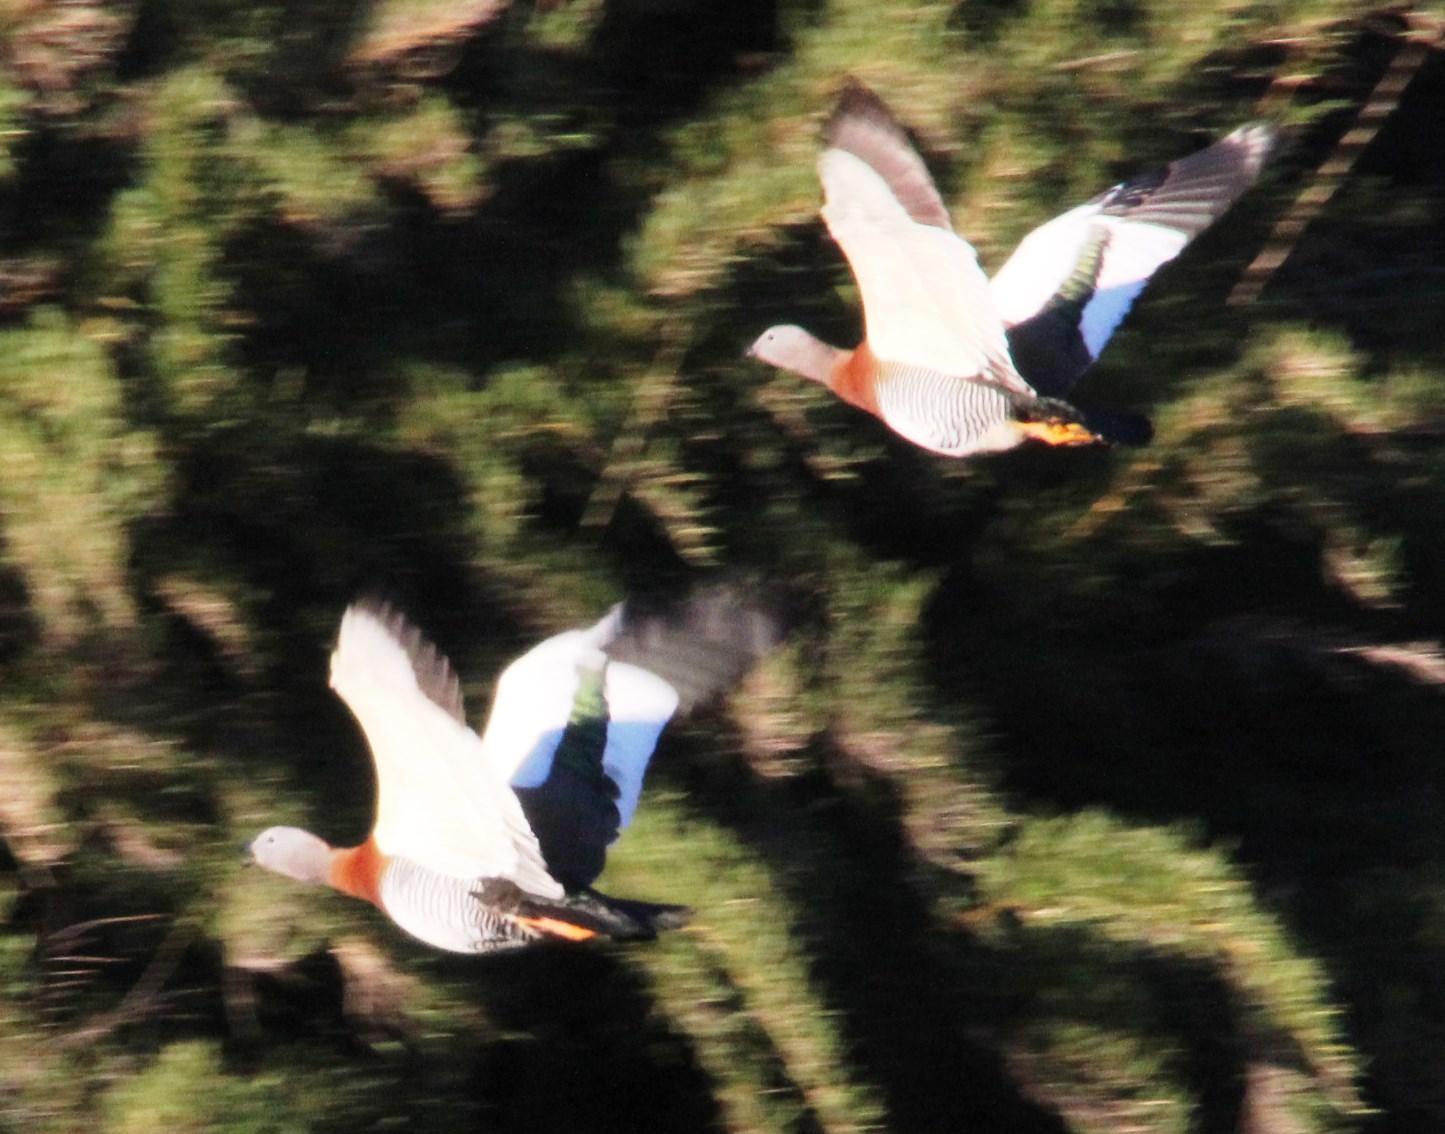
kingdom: Animalia
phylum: Chordata
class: Aves
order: Anseriformes
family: Anatidae
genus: Chloephaga
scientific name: Chloephaga poliocephala
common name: Ashy-headed goose
